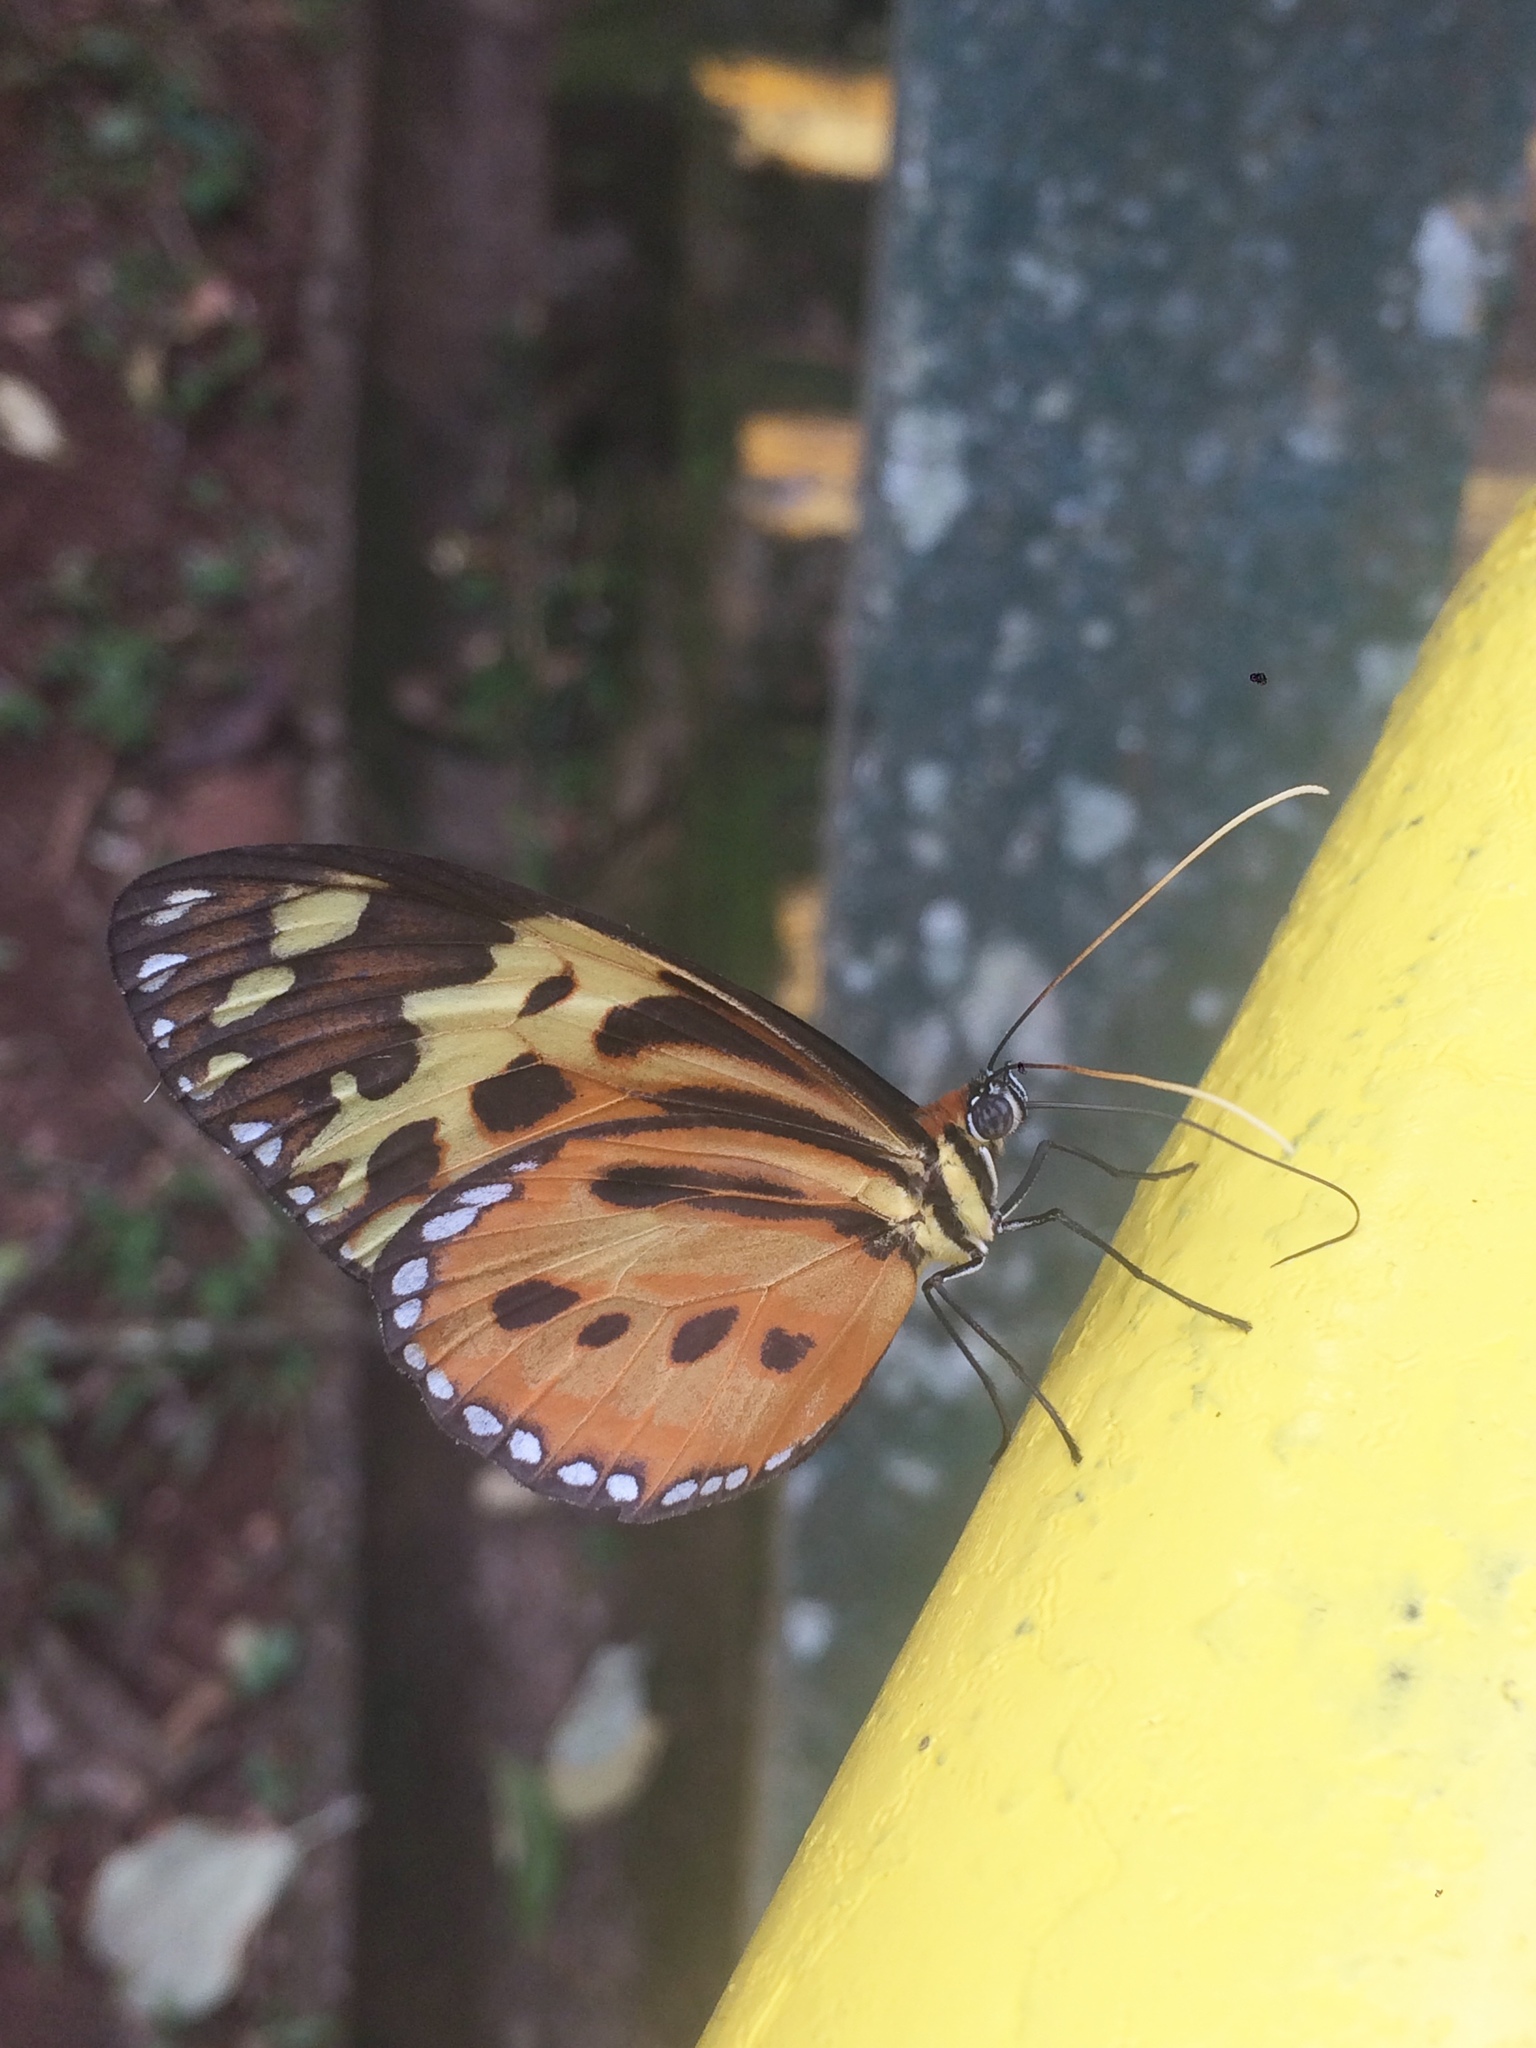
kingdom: Animalia
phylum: Arthropoda
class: Insecta
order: Lepidoptera
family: Nymphalidae
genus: Tithorea
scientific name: Tithorea harmonia
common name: Harmonia tigerwing
